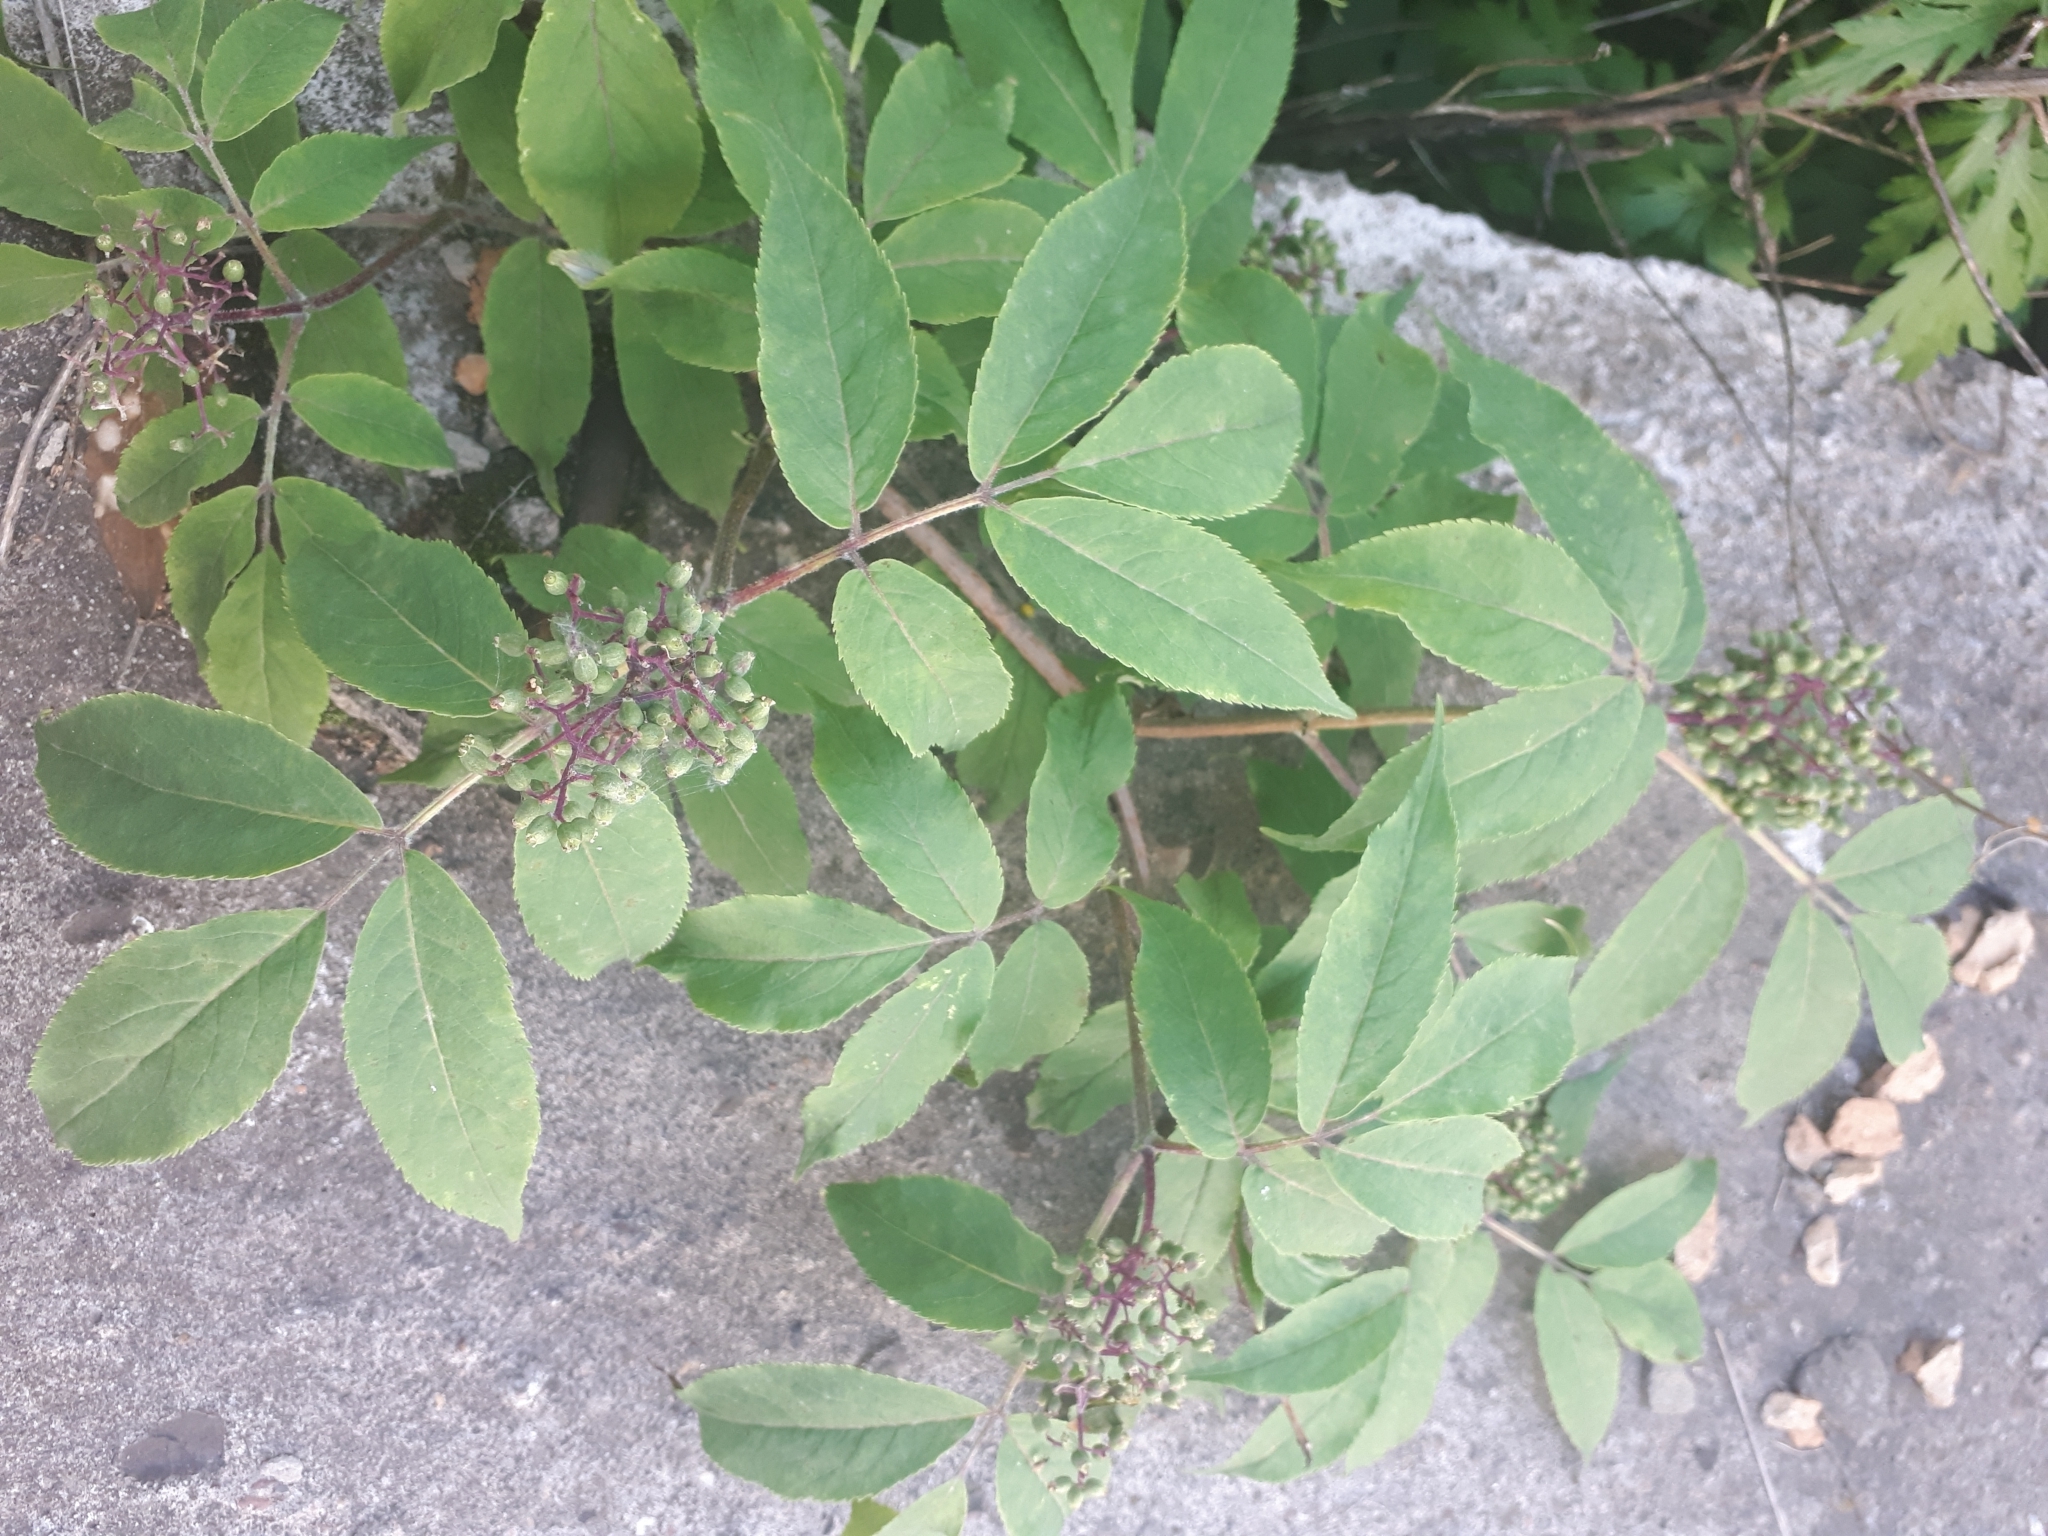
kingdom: Plantae
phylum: Tracheophyta
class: Magnoliopsida
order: Dipsacales
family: Viburnaceae
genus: Sambucus
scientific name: Sambucus racemosa
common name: Red-berried elder
